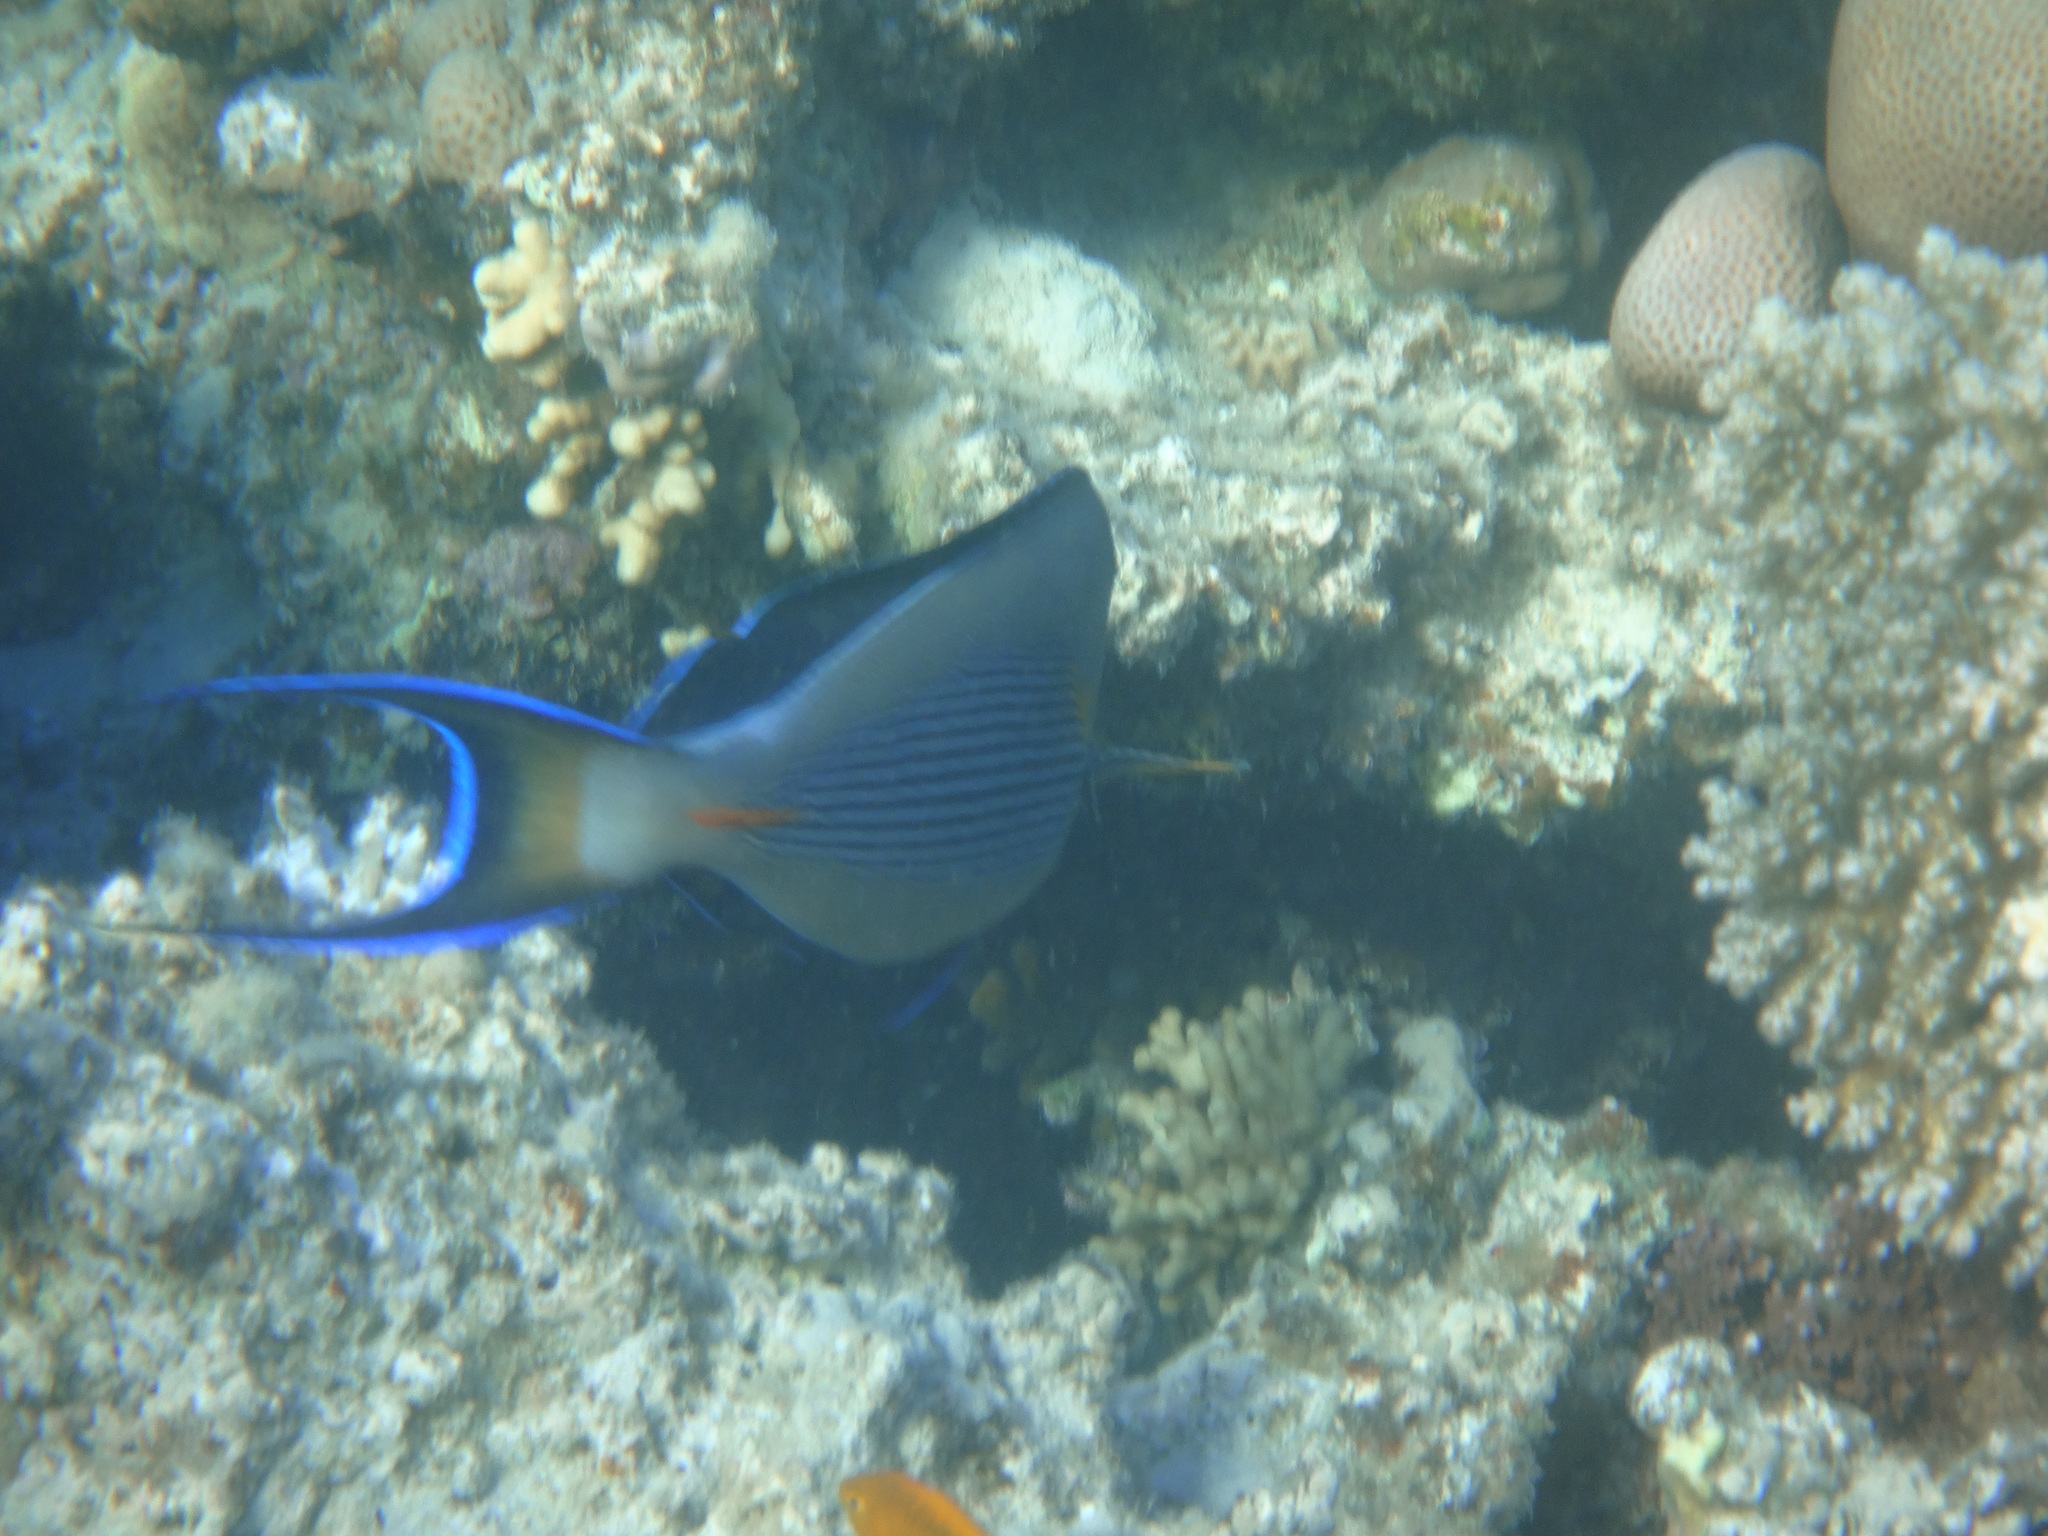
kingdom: Animalia
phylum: Chordata
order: Perciformes
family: Acanthuridae
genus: Acanthurus
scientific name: Acanthurus sohal
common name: Red sea surgeonfish
